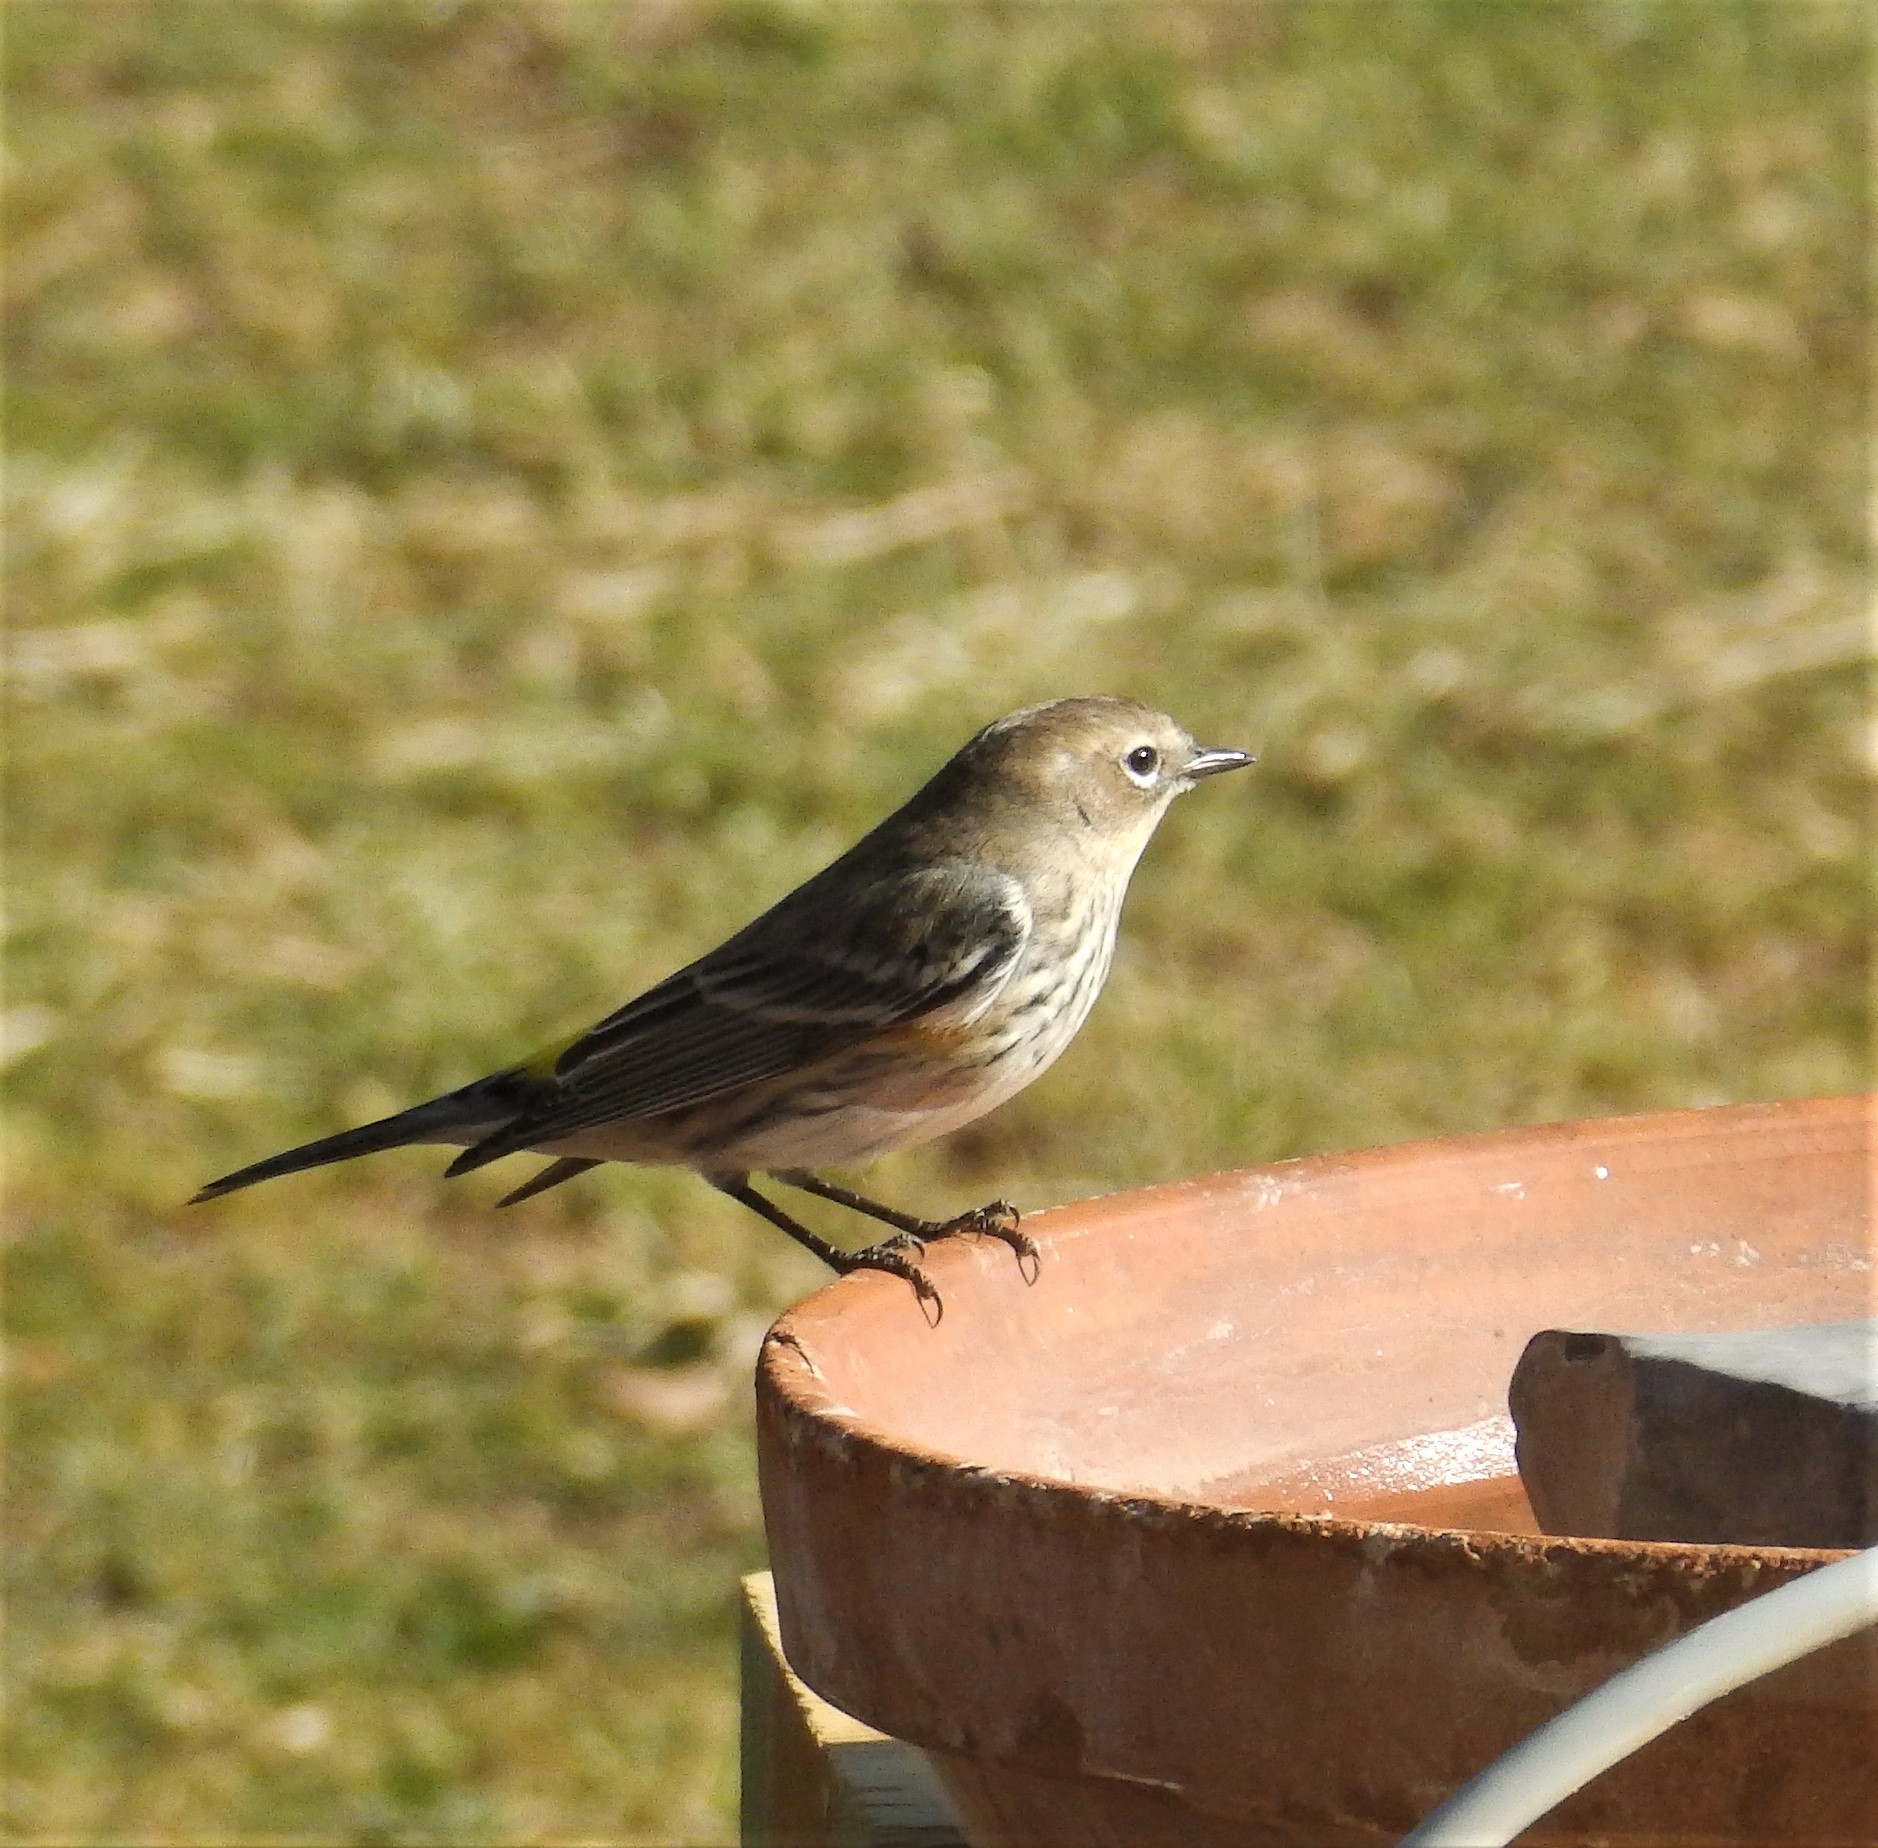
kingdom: Animalia
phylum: Chordata
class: Aves
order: Passeriformes
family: Parulidae
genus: Setophaga
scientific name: Setophaga coronata
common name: Myrtle warbler
